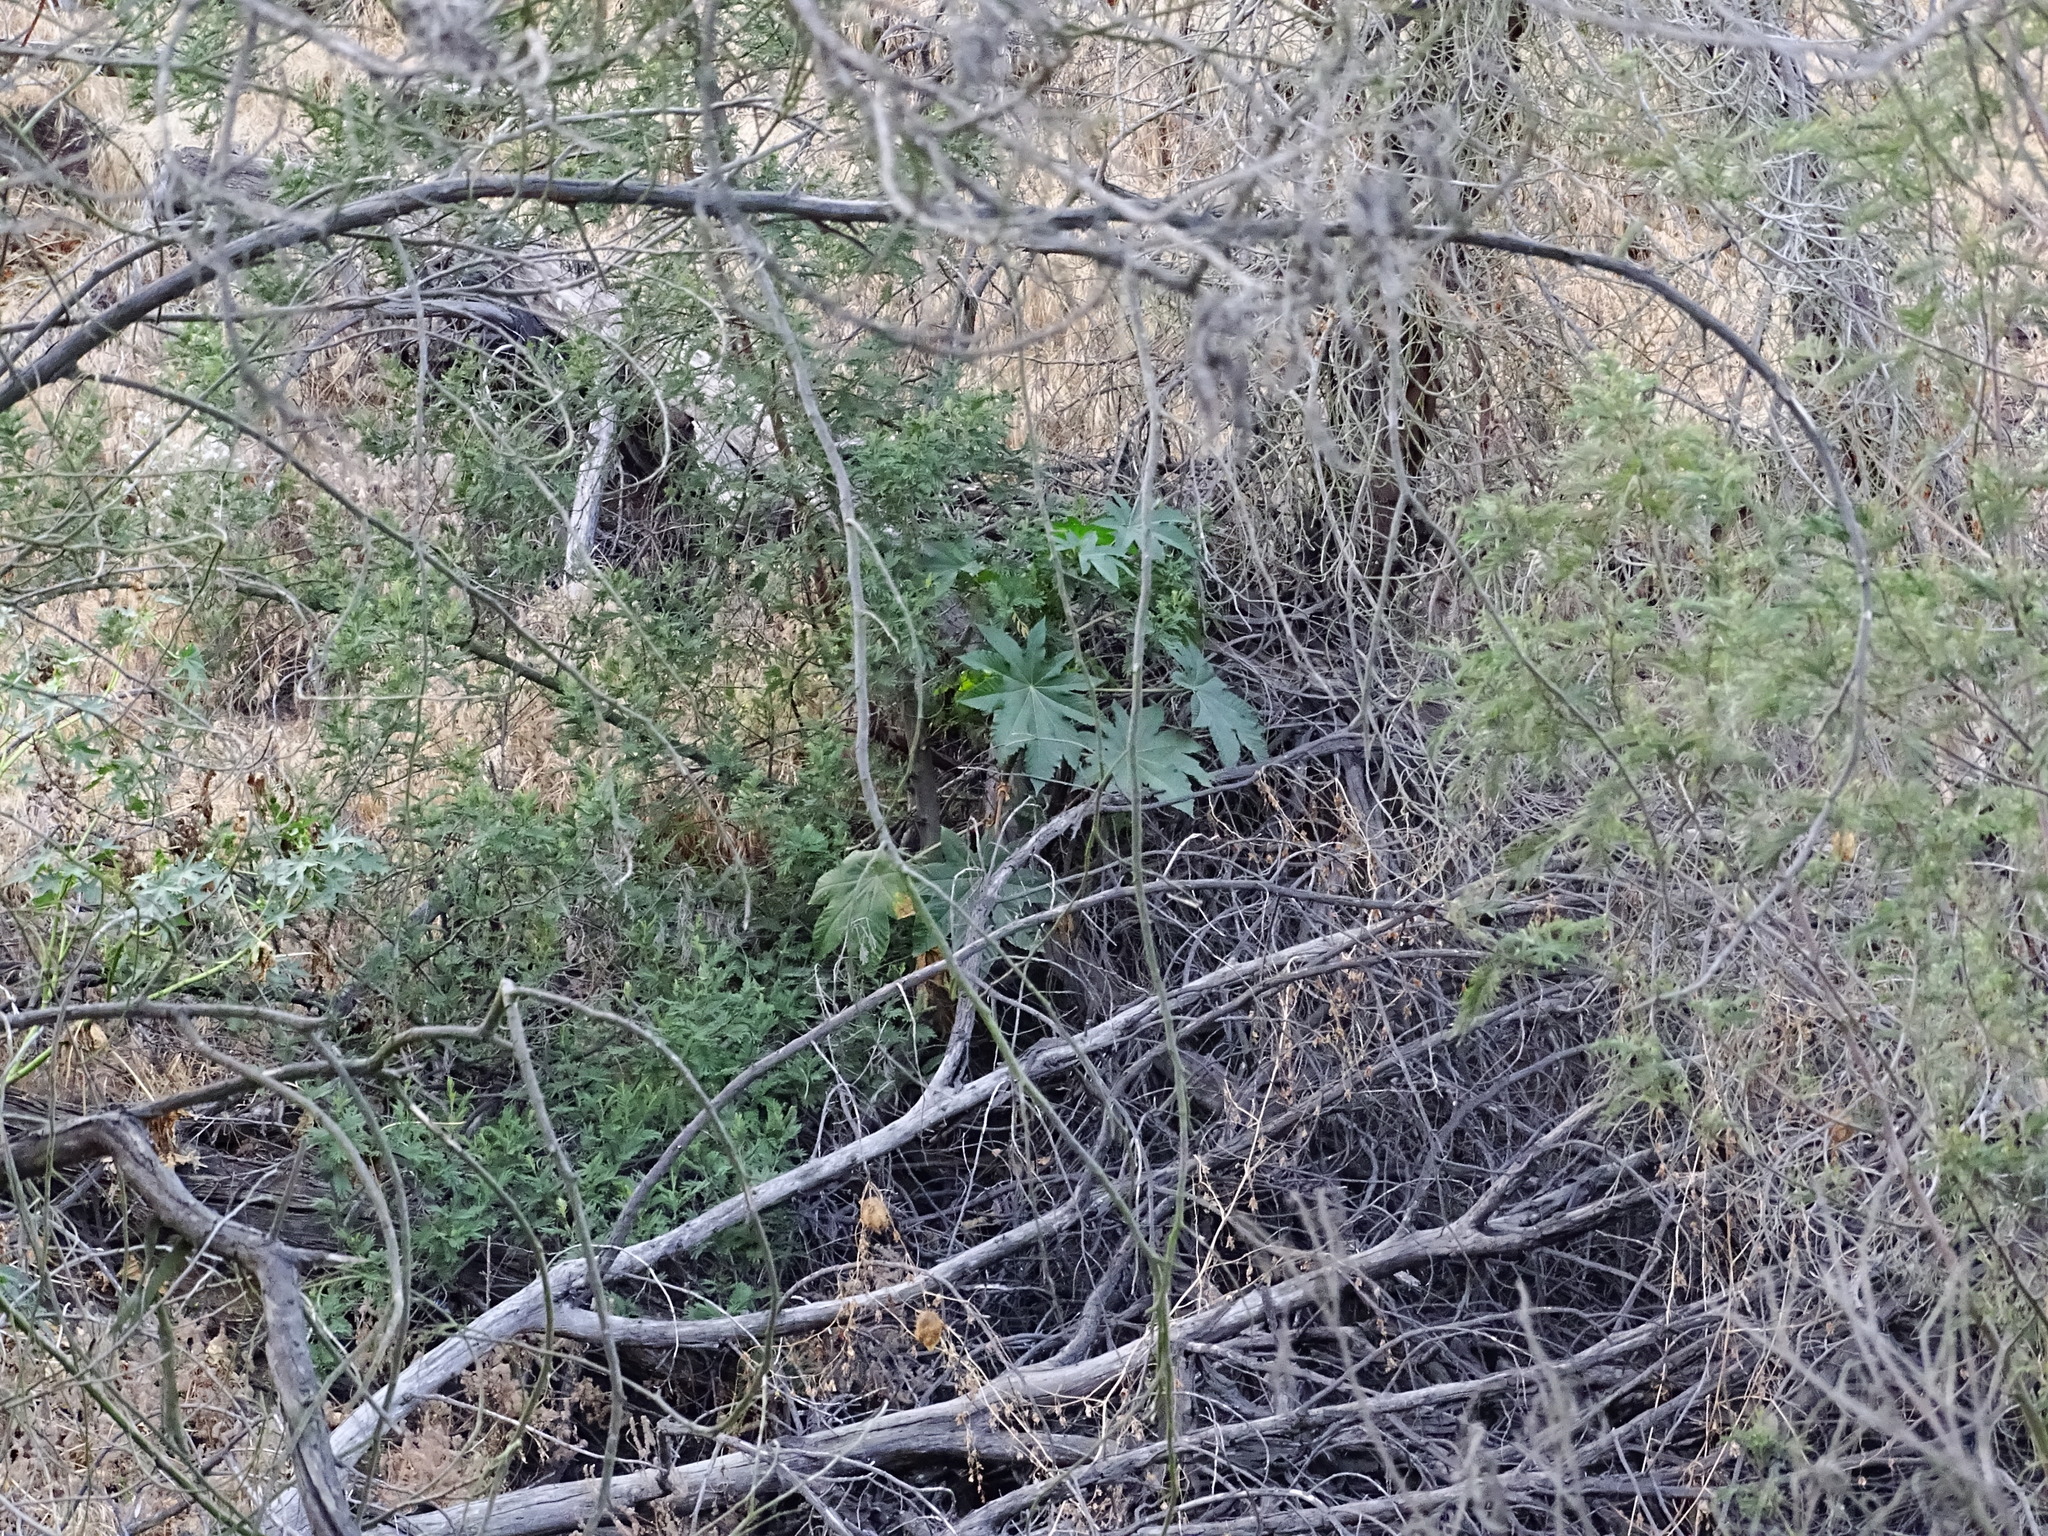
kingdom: Plantae
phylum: Tracheophyta
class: Magnoliopsida
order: Malpighiales
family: Euphorbiaceae
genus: Ricinus
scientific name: Ricinus communis
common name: Castor-oil-plant
